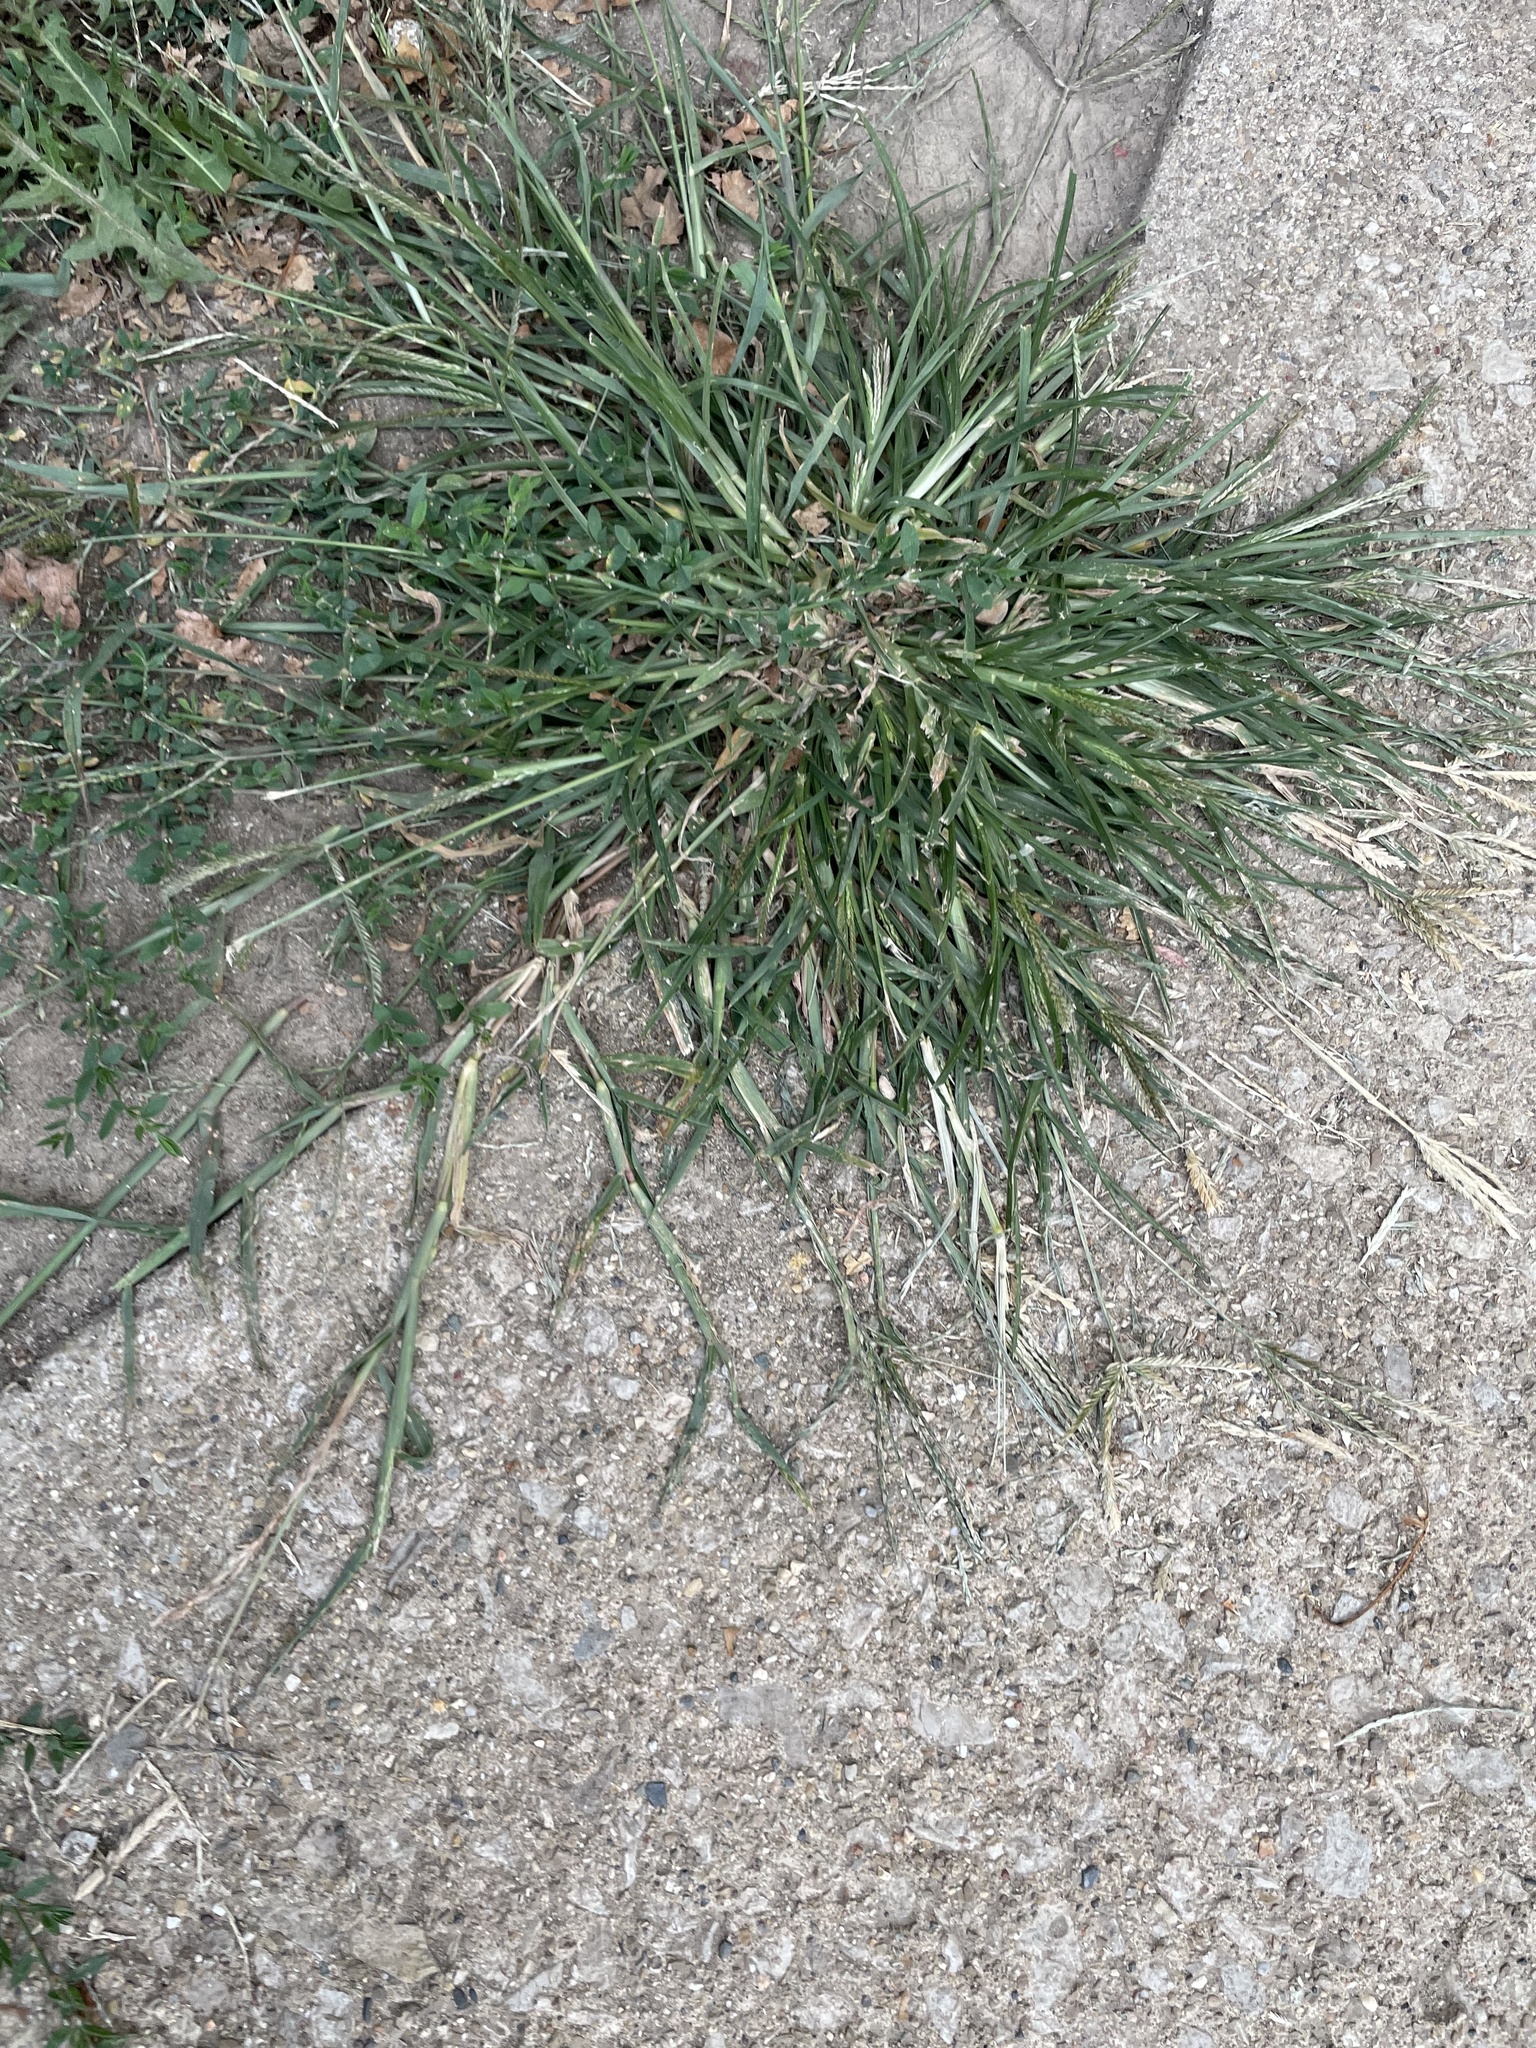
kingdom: Plantae
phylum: Tracheophyta
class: Liliopsida
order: Poales
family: Poaceae
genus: Eleusine
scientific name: Eleusine indica
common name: Yard-grass
